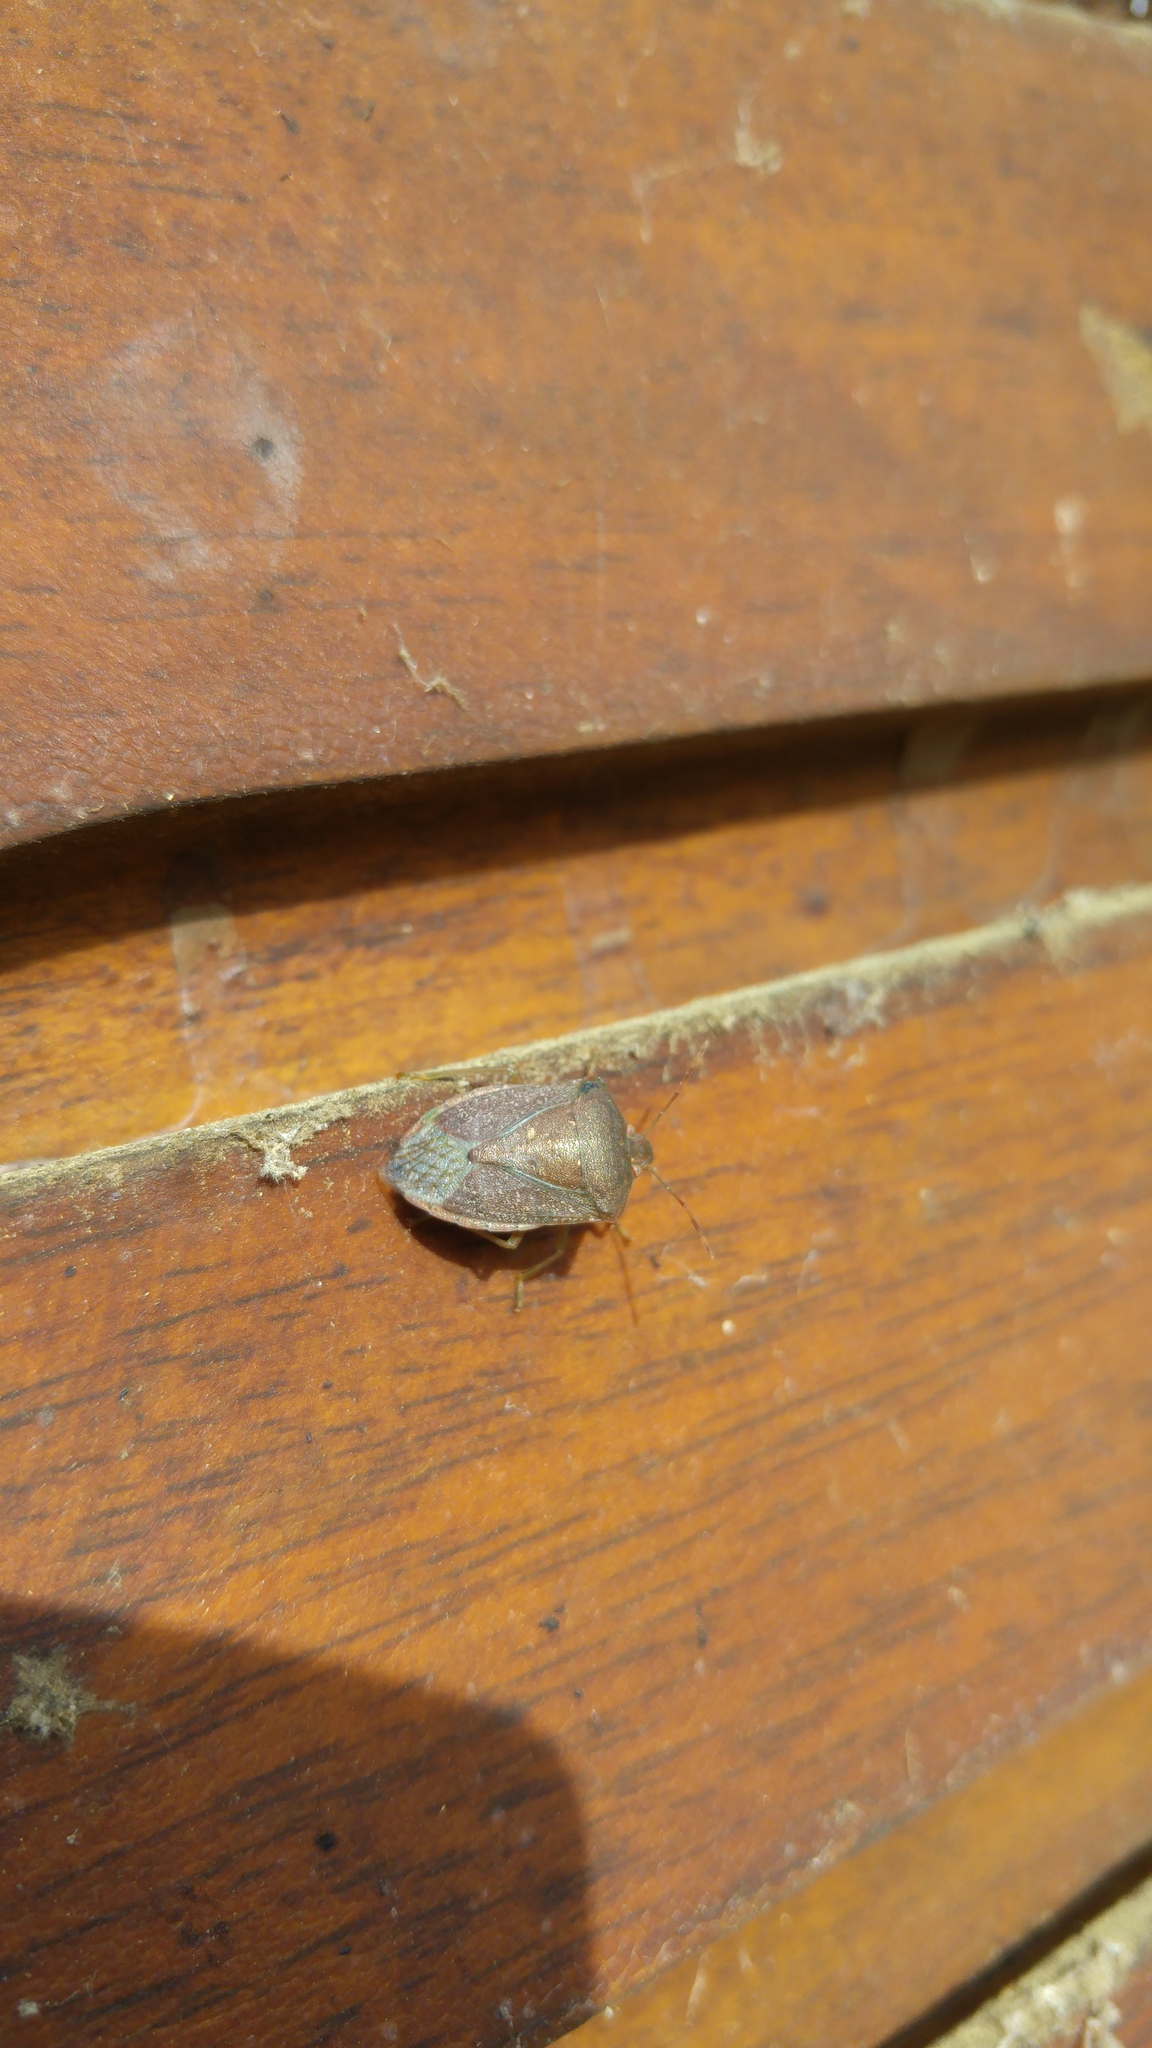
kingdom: Animalia
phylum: Arthropoda
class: Insecta
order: Hemiptera
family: Pentatomidae
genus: Nezara
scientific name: Nezara viridula
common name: Southern green stink bug
